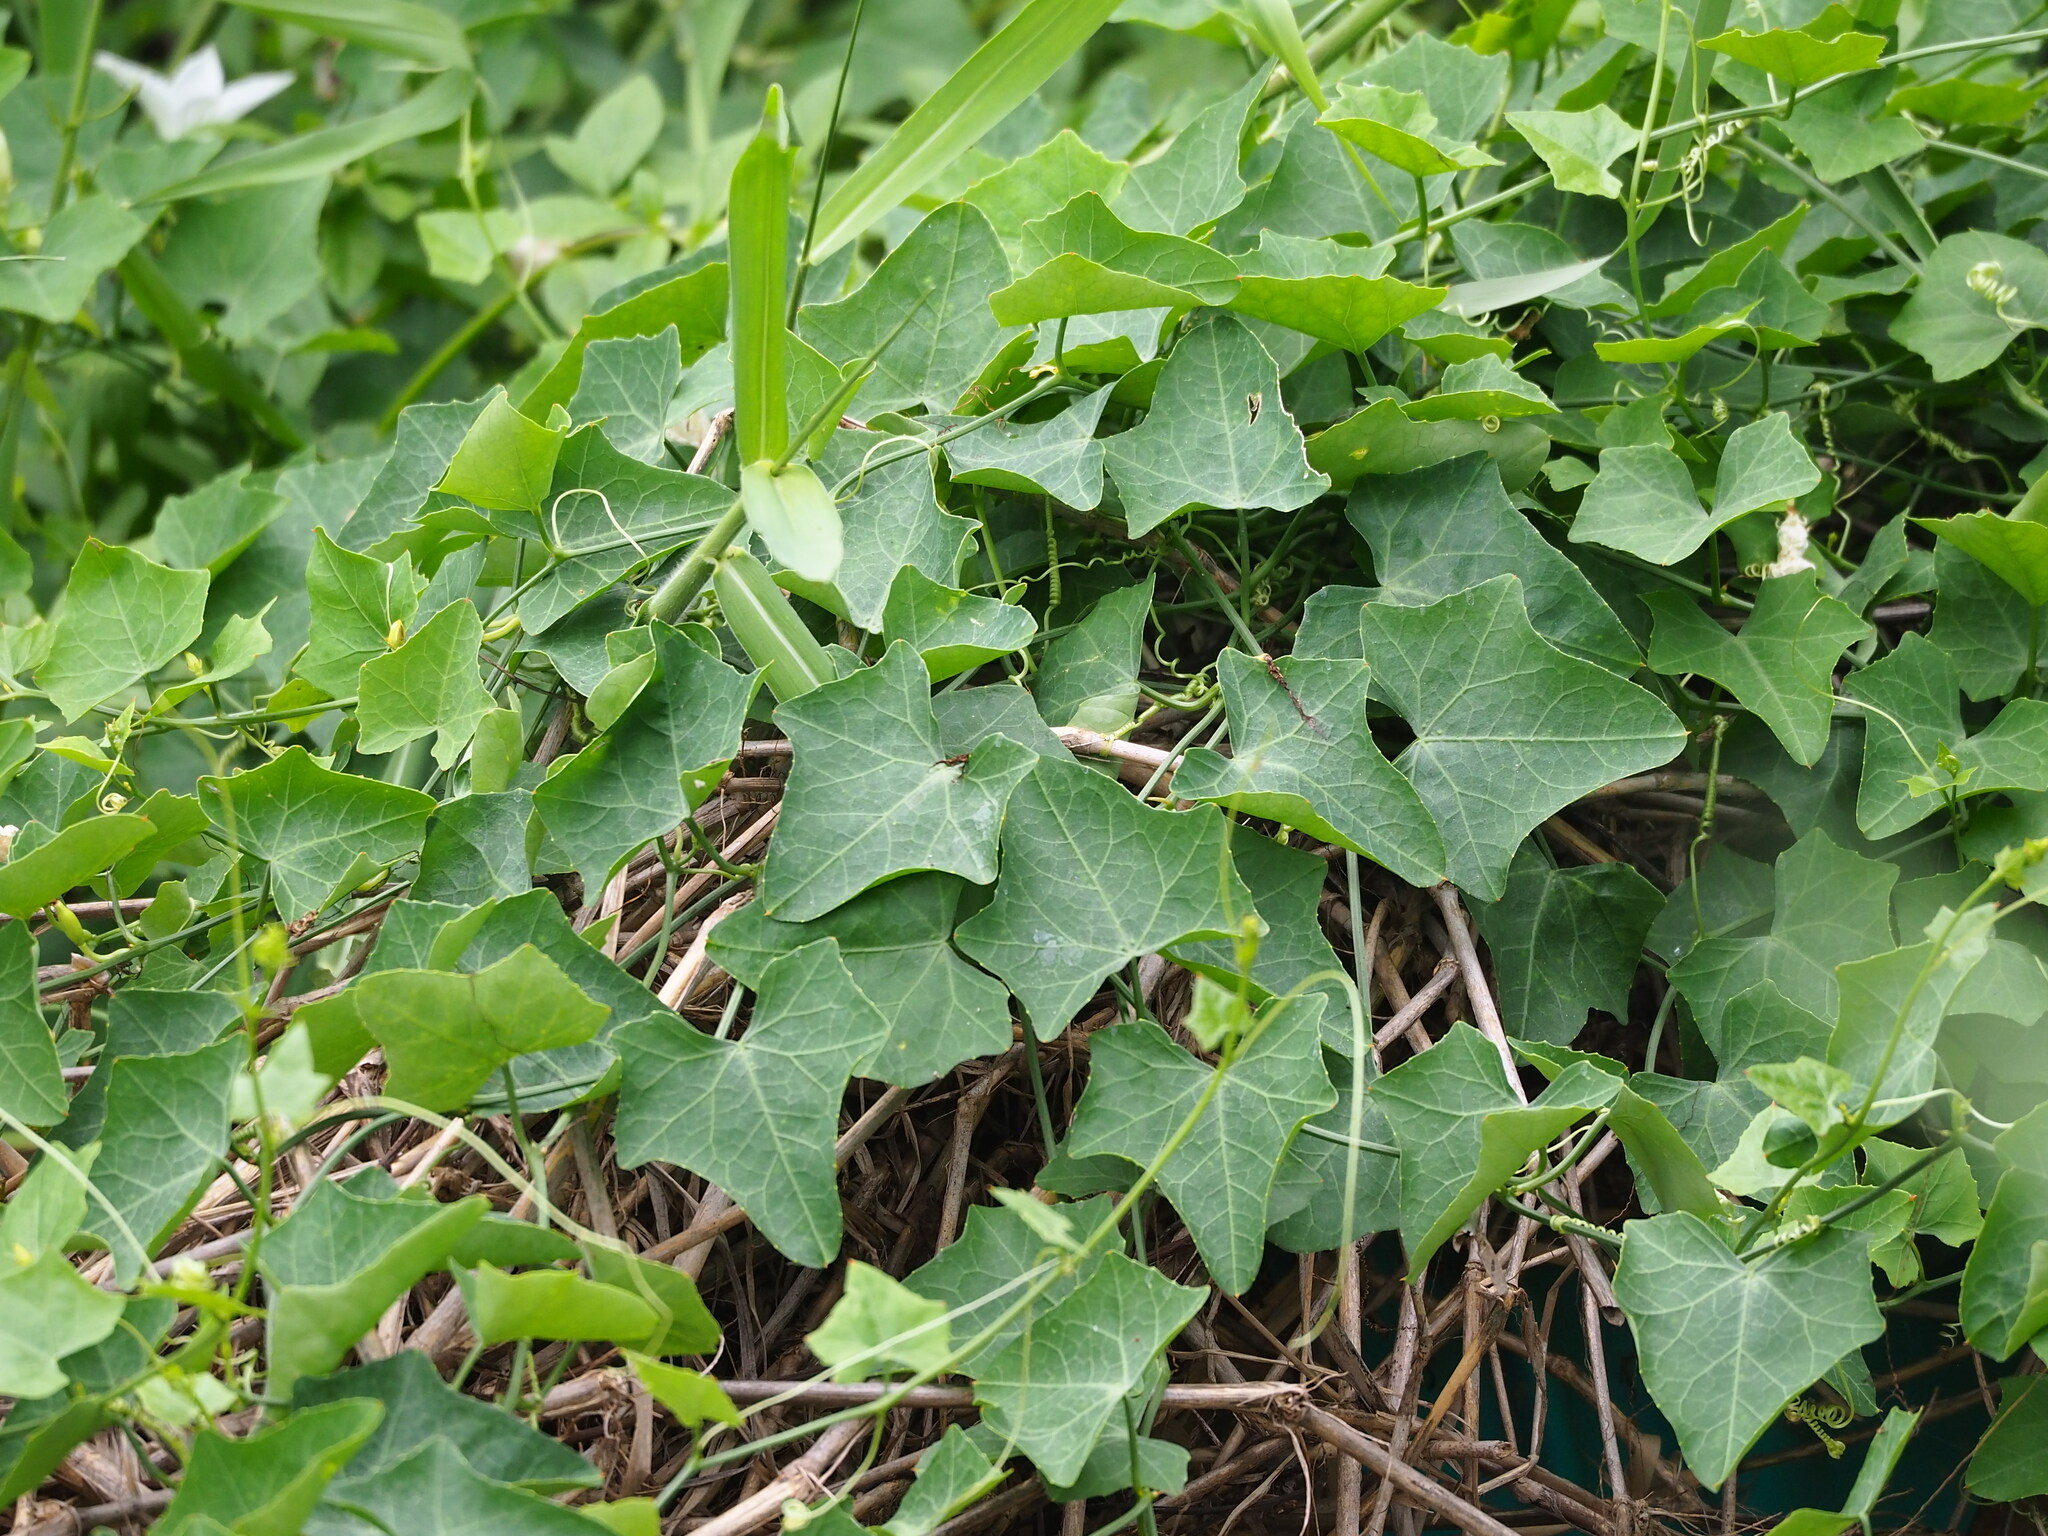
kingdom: Plantae
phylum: Tracheophyta
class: Magnoliopsida
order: Cucurbitales
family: Cucurbitaceae
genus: Coccinia
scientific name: Coccinia grandis
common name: Ivy gourd
